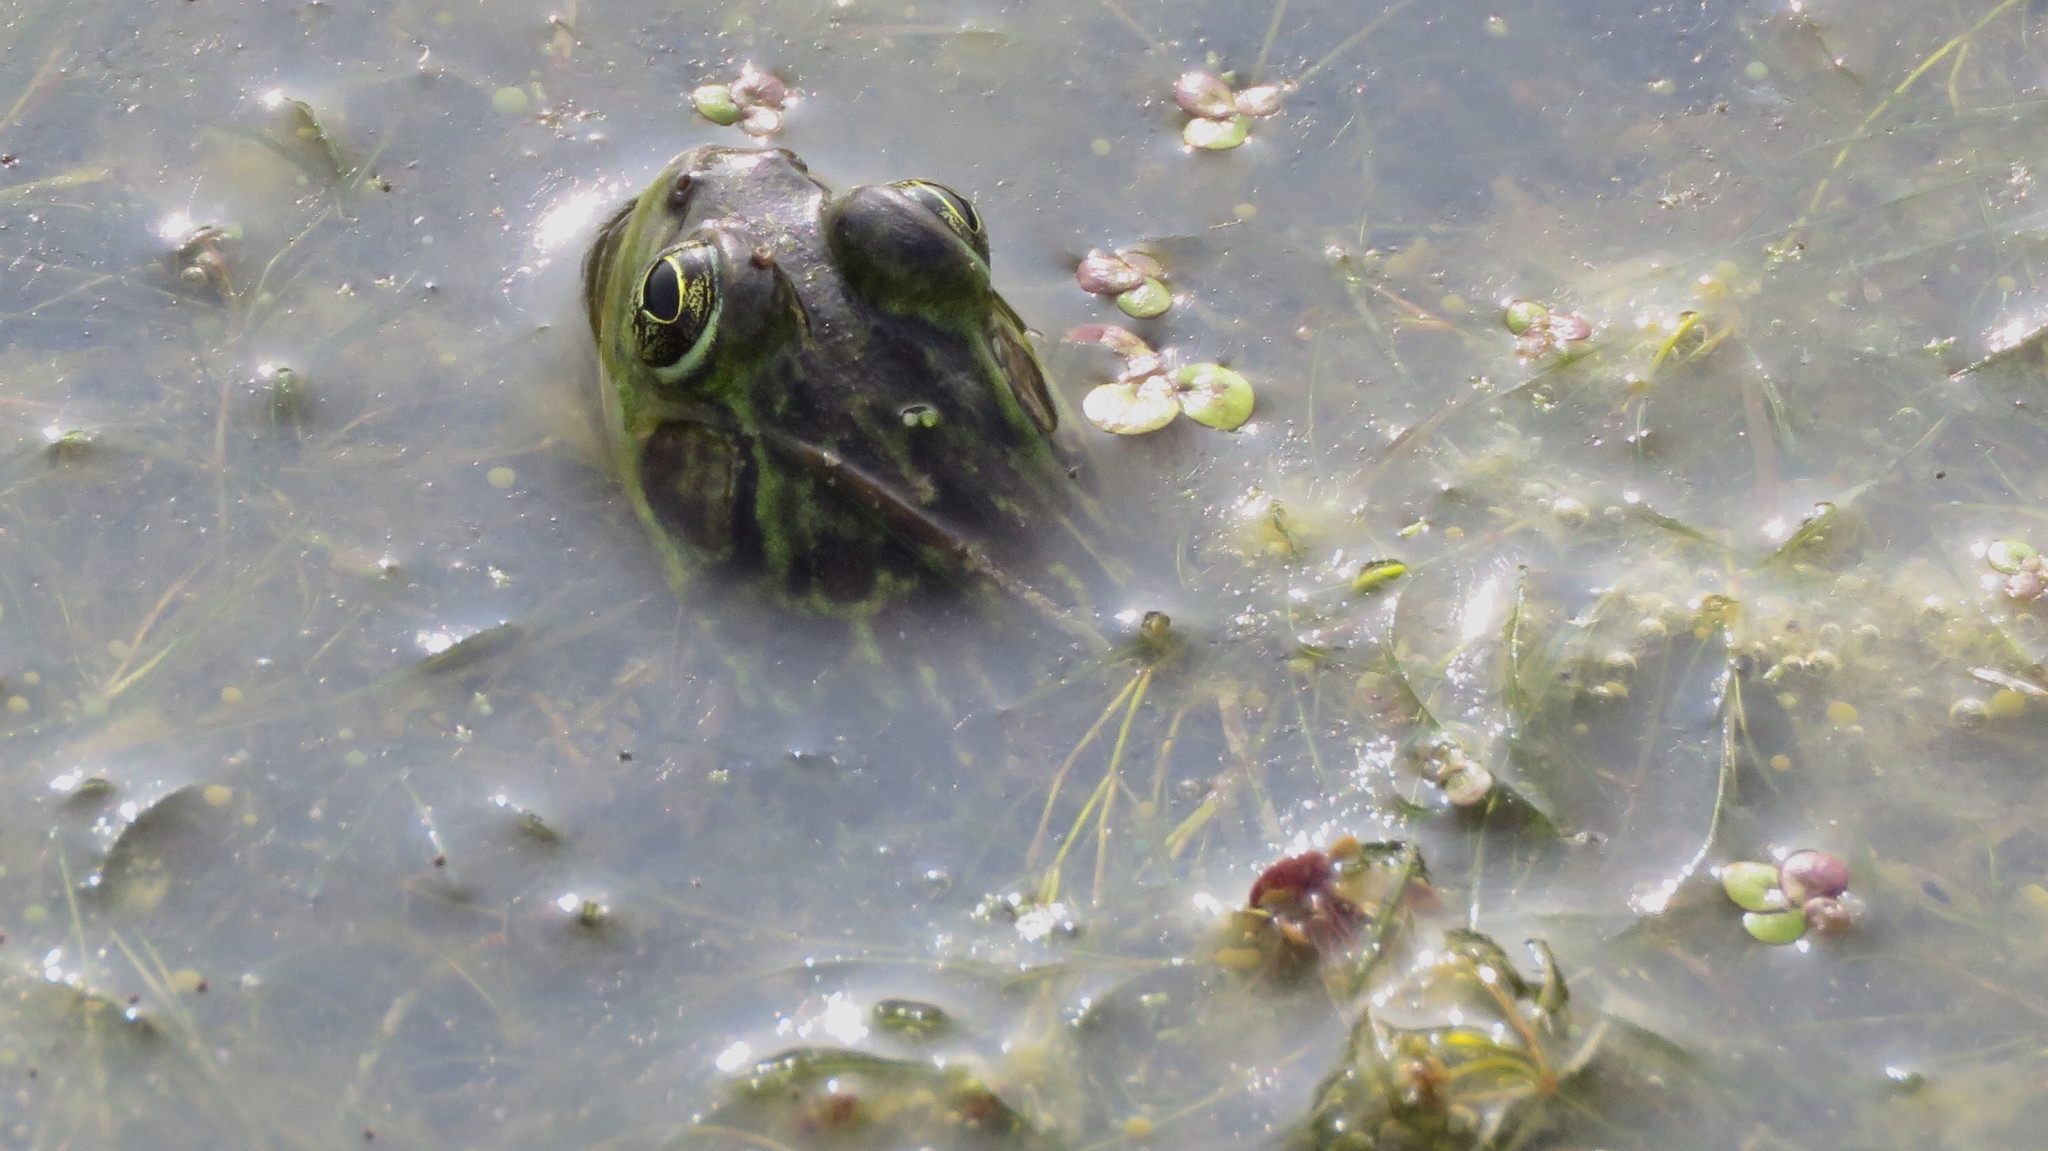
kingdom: Animalia
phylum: Chordata
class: Amphibia
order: Anura
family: Ranidae
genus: Lithobates
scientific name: Lithobates septentrionalis
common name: Mink frog
